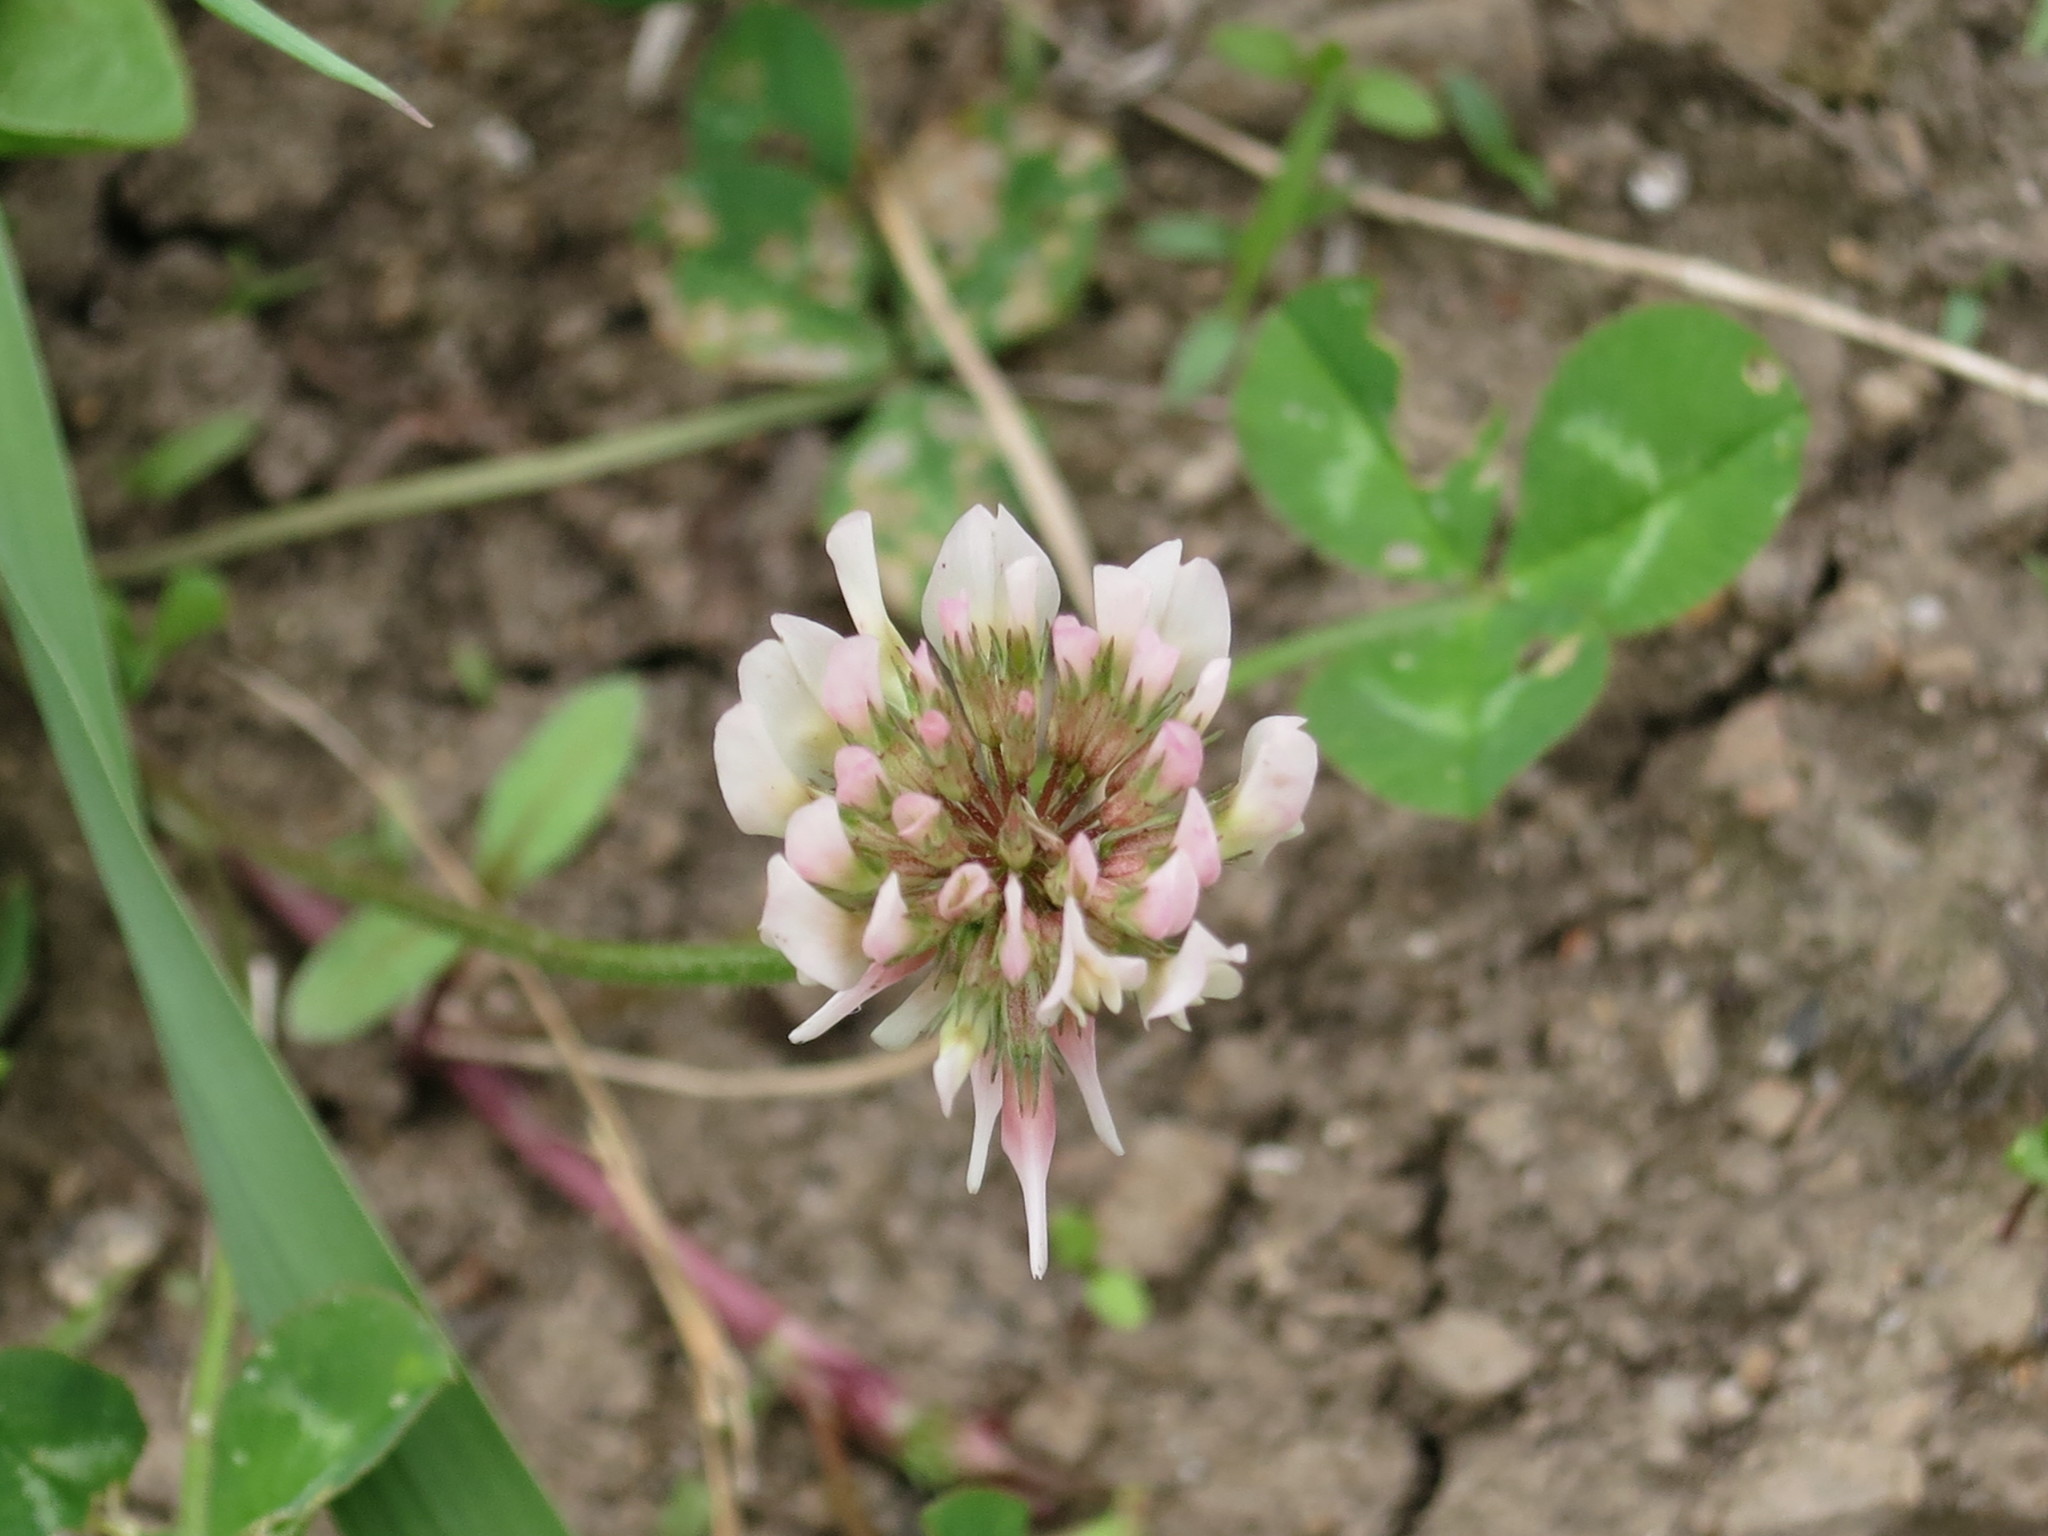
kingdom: Plantae
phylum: Tracheophyta
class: Magnoliopsida
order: Fabales
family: Fabaceae
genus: Trifolium
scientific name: Trifolium repens
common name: White clover
